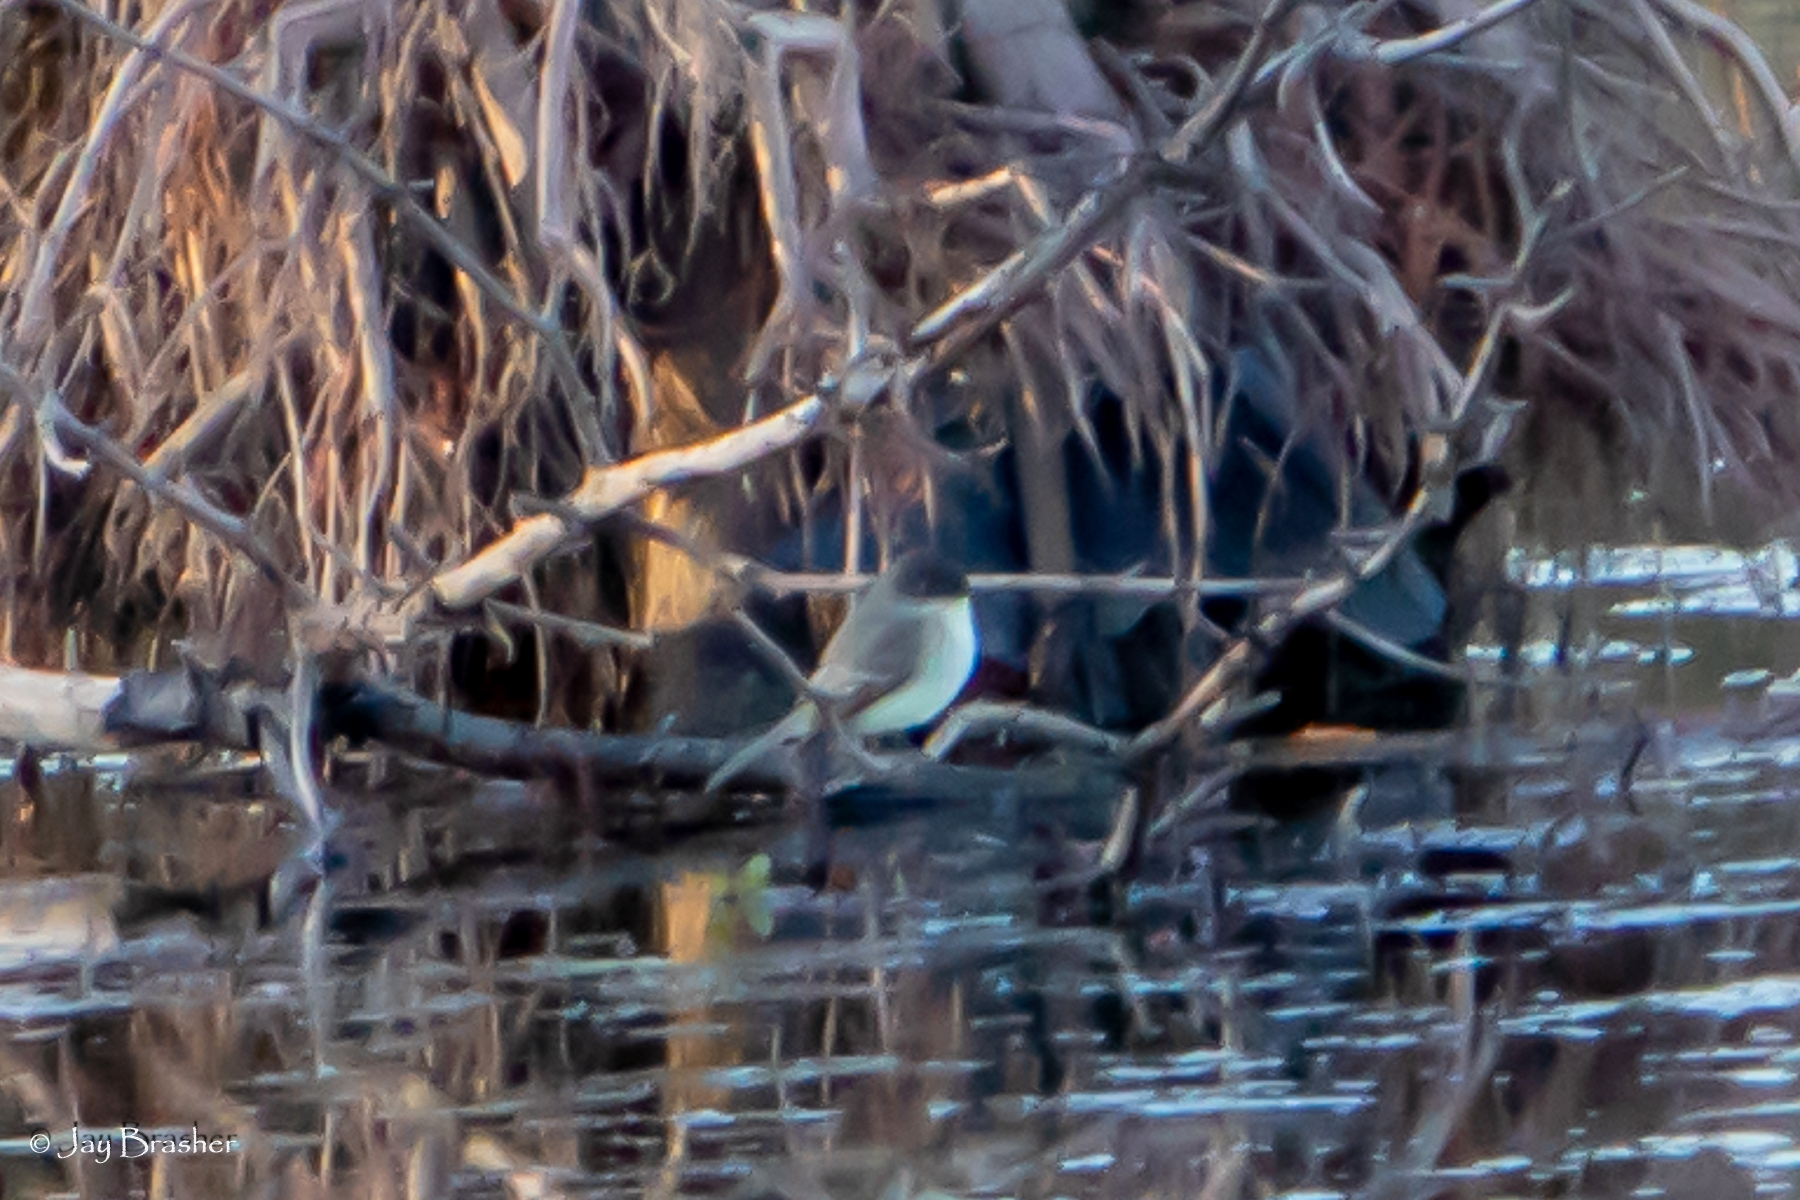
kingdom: Animalia
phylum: Chordata
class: Aves
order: Passeriformes
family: Tyrannidae
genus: Sayornis
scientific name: Sayornis phoebe
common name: Eastern phoebe
